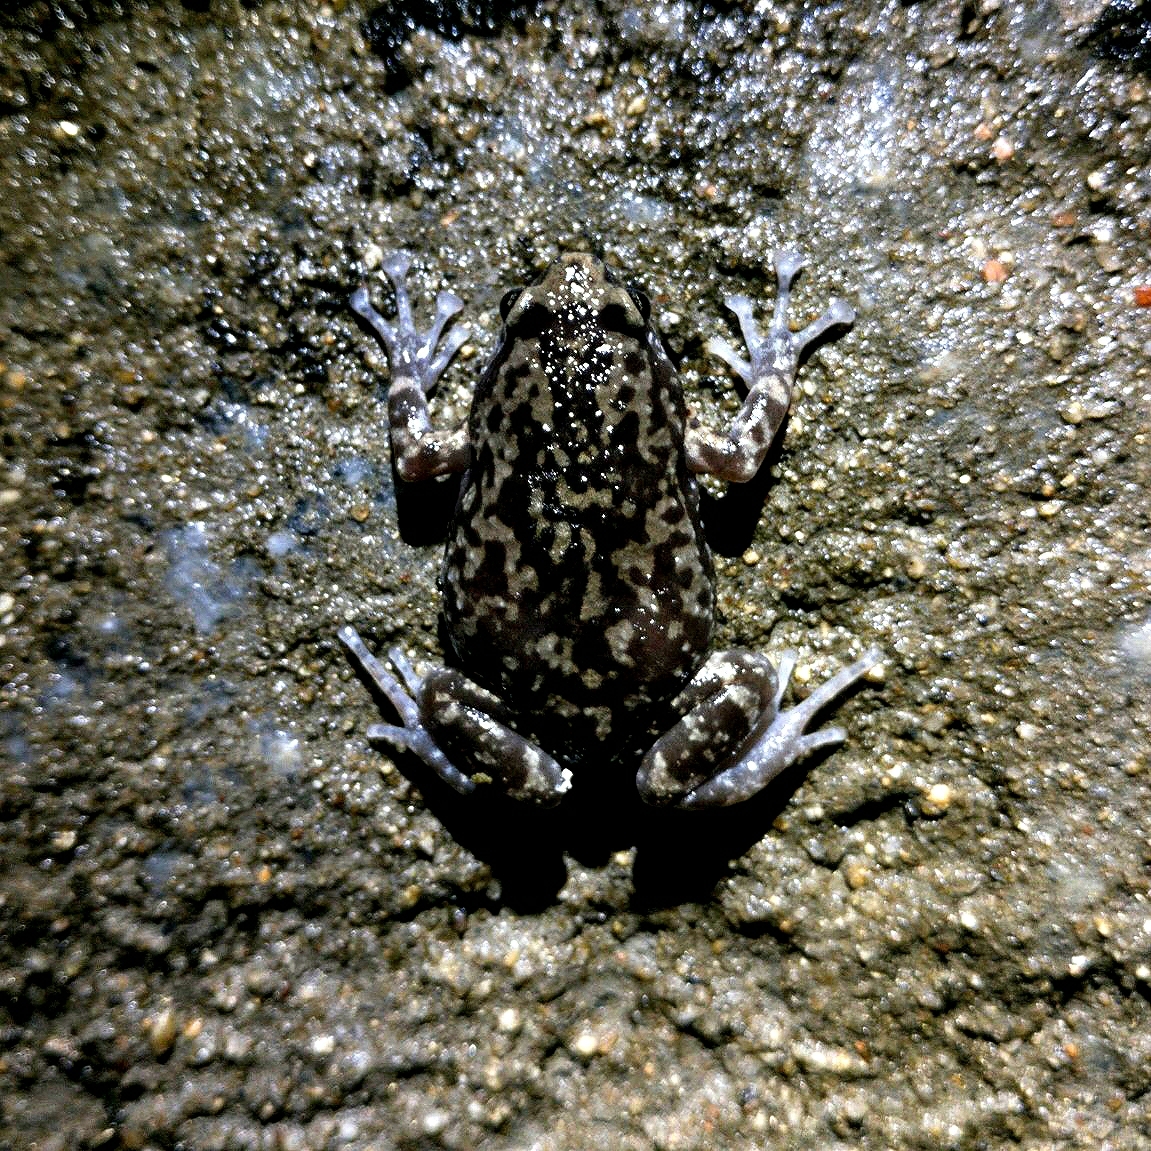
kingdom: Animalia
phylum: Chordata
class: Amphibia
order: Anura
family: Microhylidae
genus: Uperodon
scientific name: Uperodon variegatus
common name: Eluru dot frog
